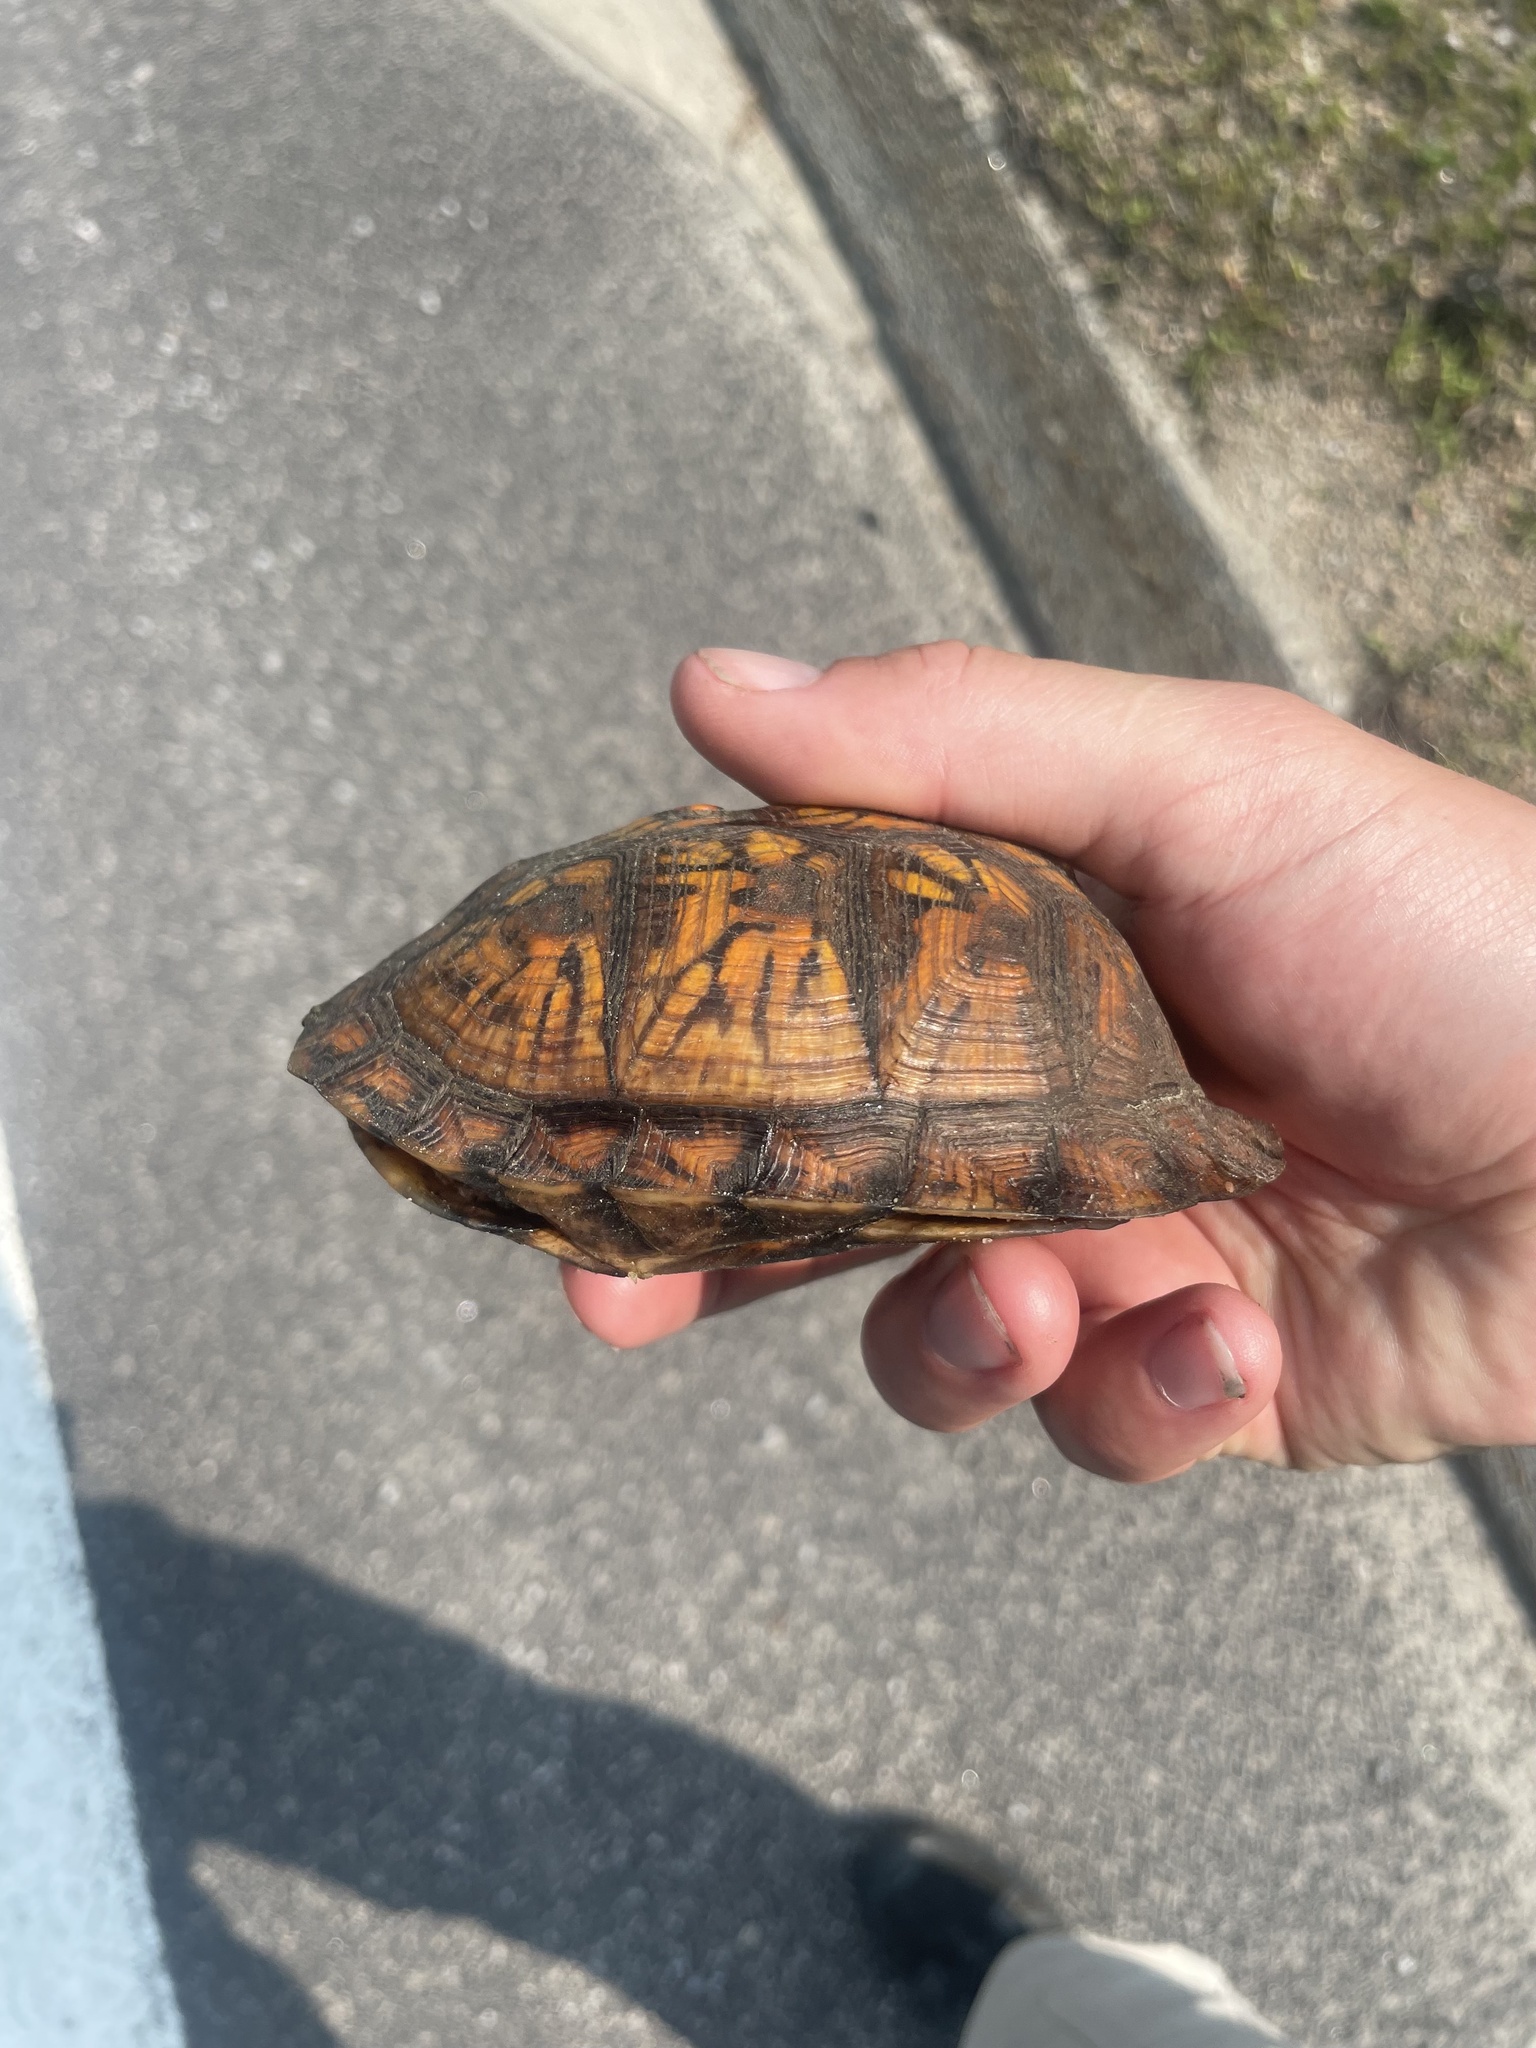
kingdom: Animalia
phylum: Chordata
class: Testudines
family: Emydidae
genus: Terrapene
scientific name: Terrapene carolina
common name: Common box turtle
